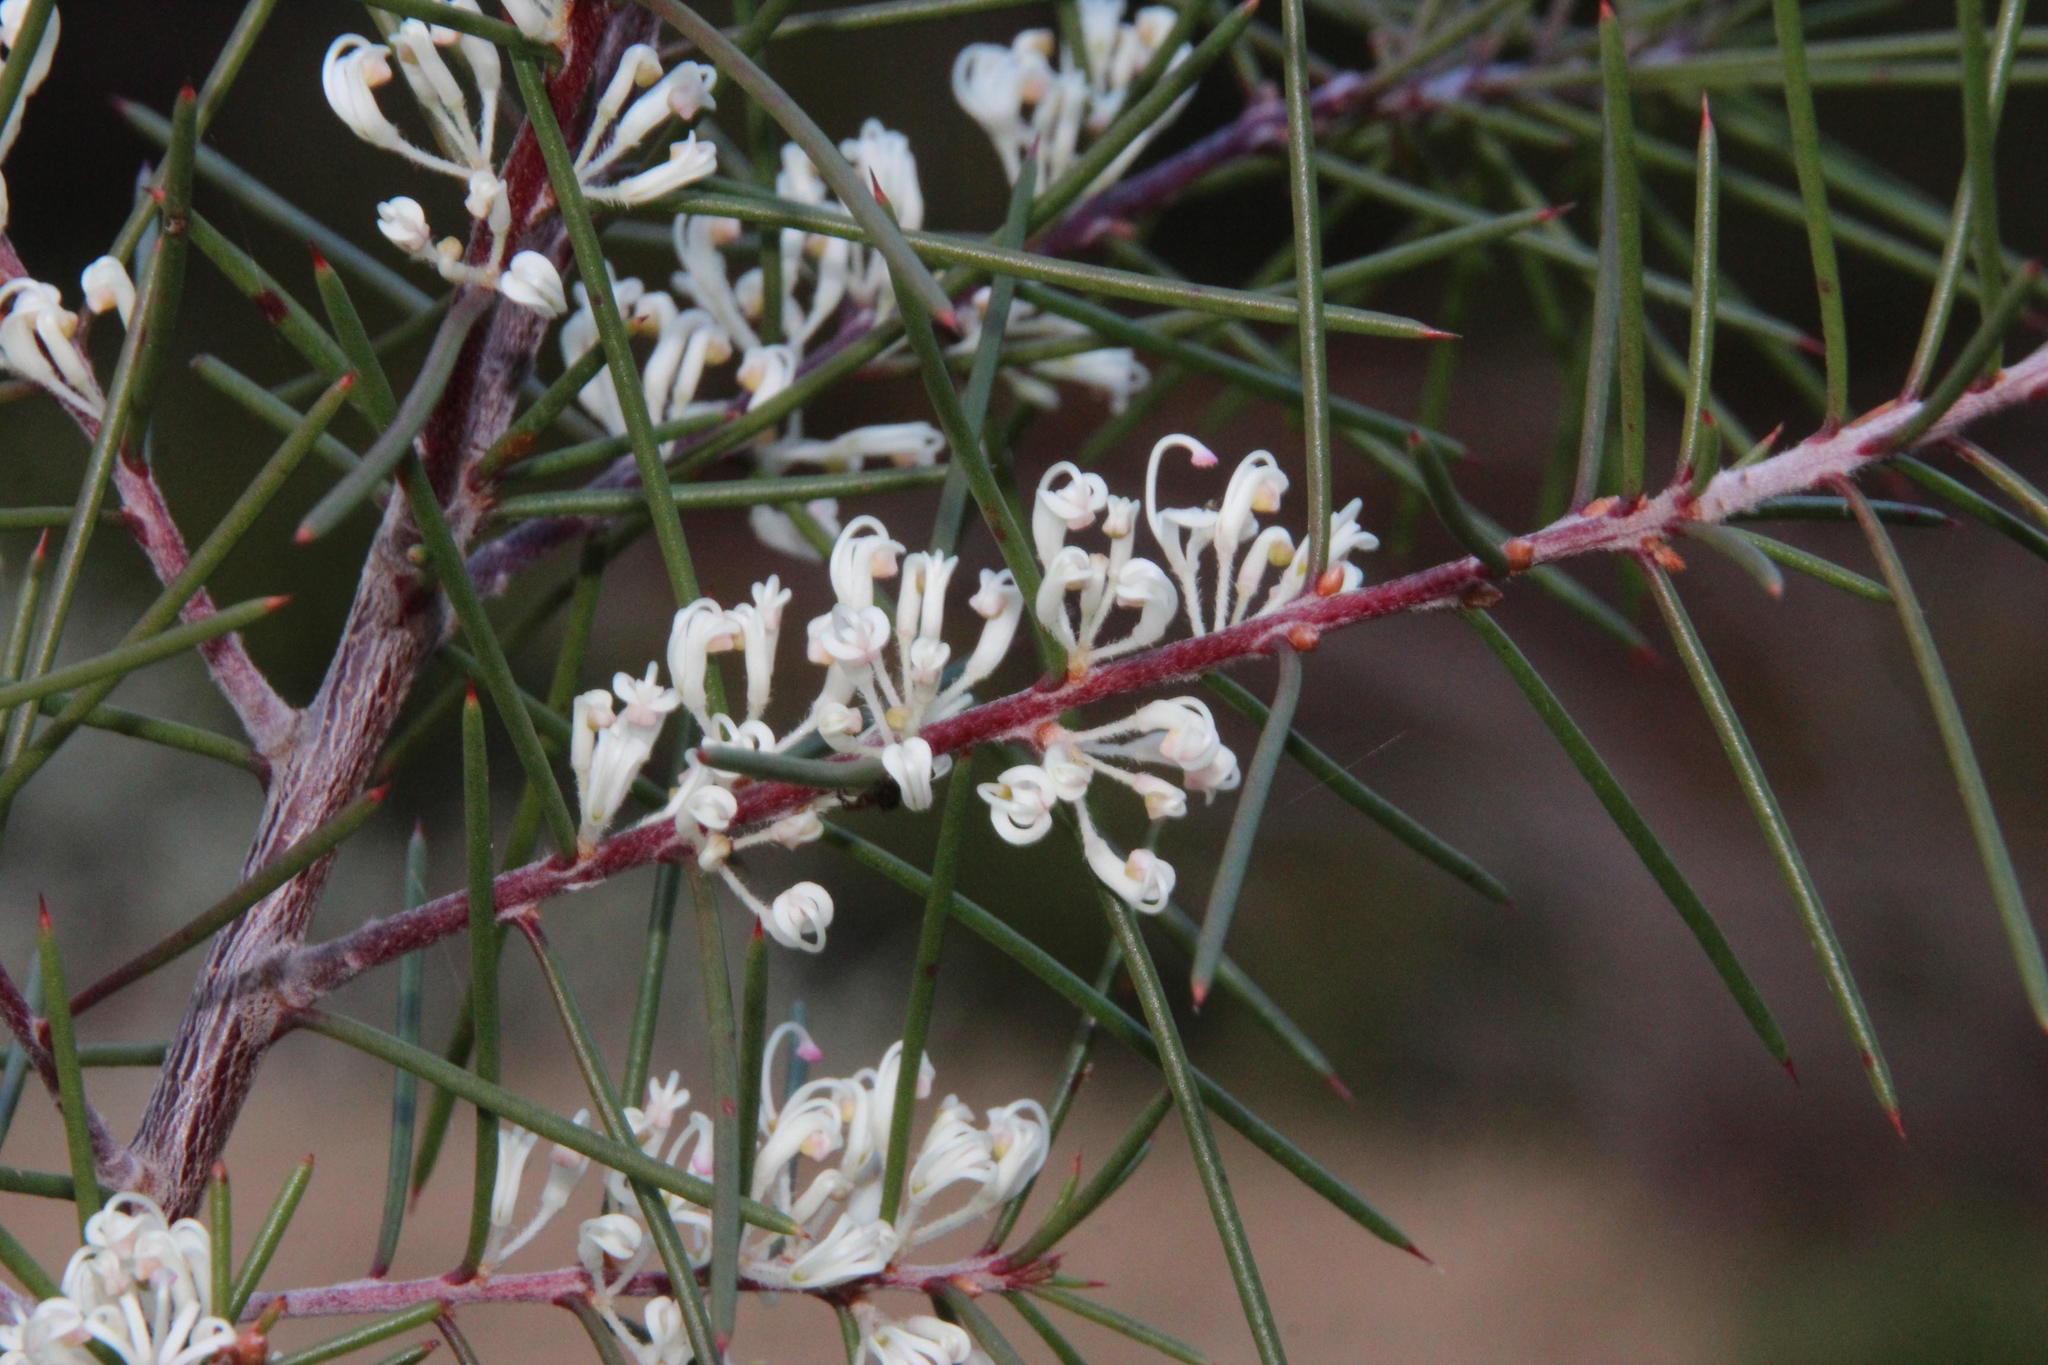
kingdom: Plantae
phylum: Tracheophyta
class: Magnoliopsida
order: Proteales
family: Proteaceae
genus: Hakea
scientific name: Hakea sericea
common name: Needle bush
